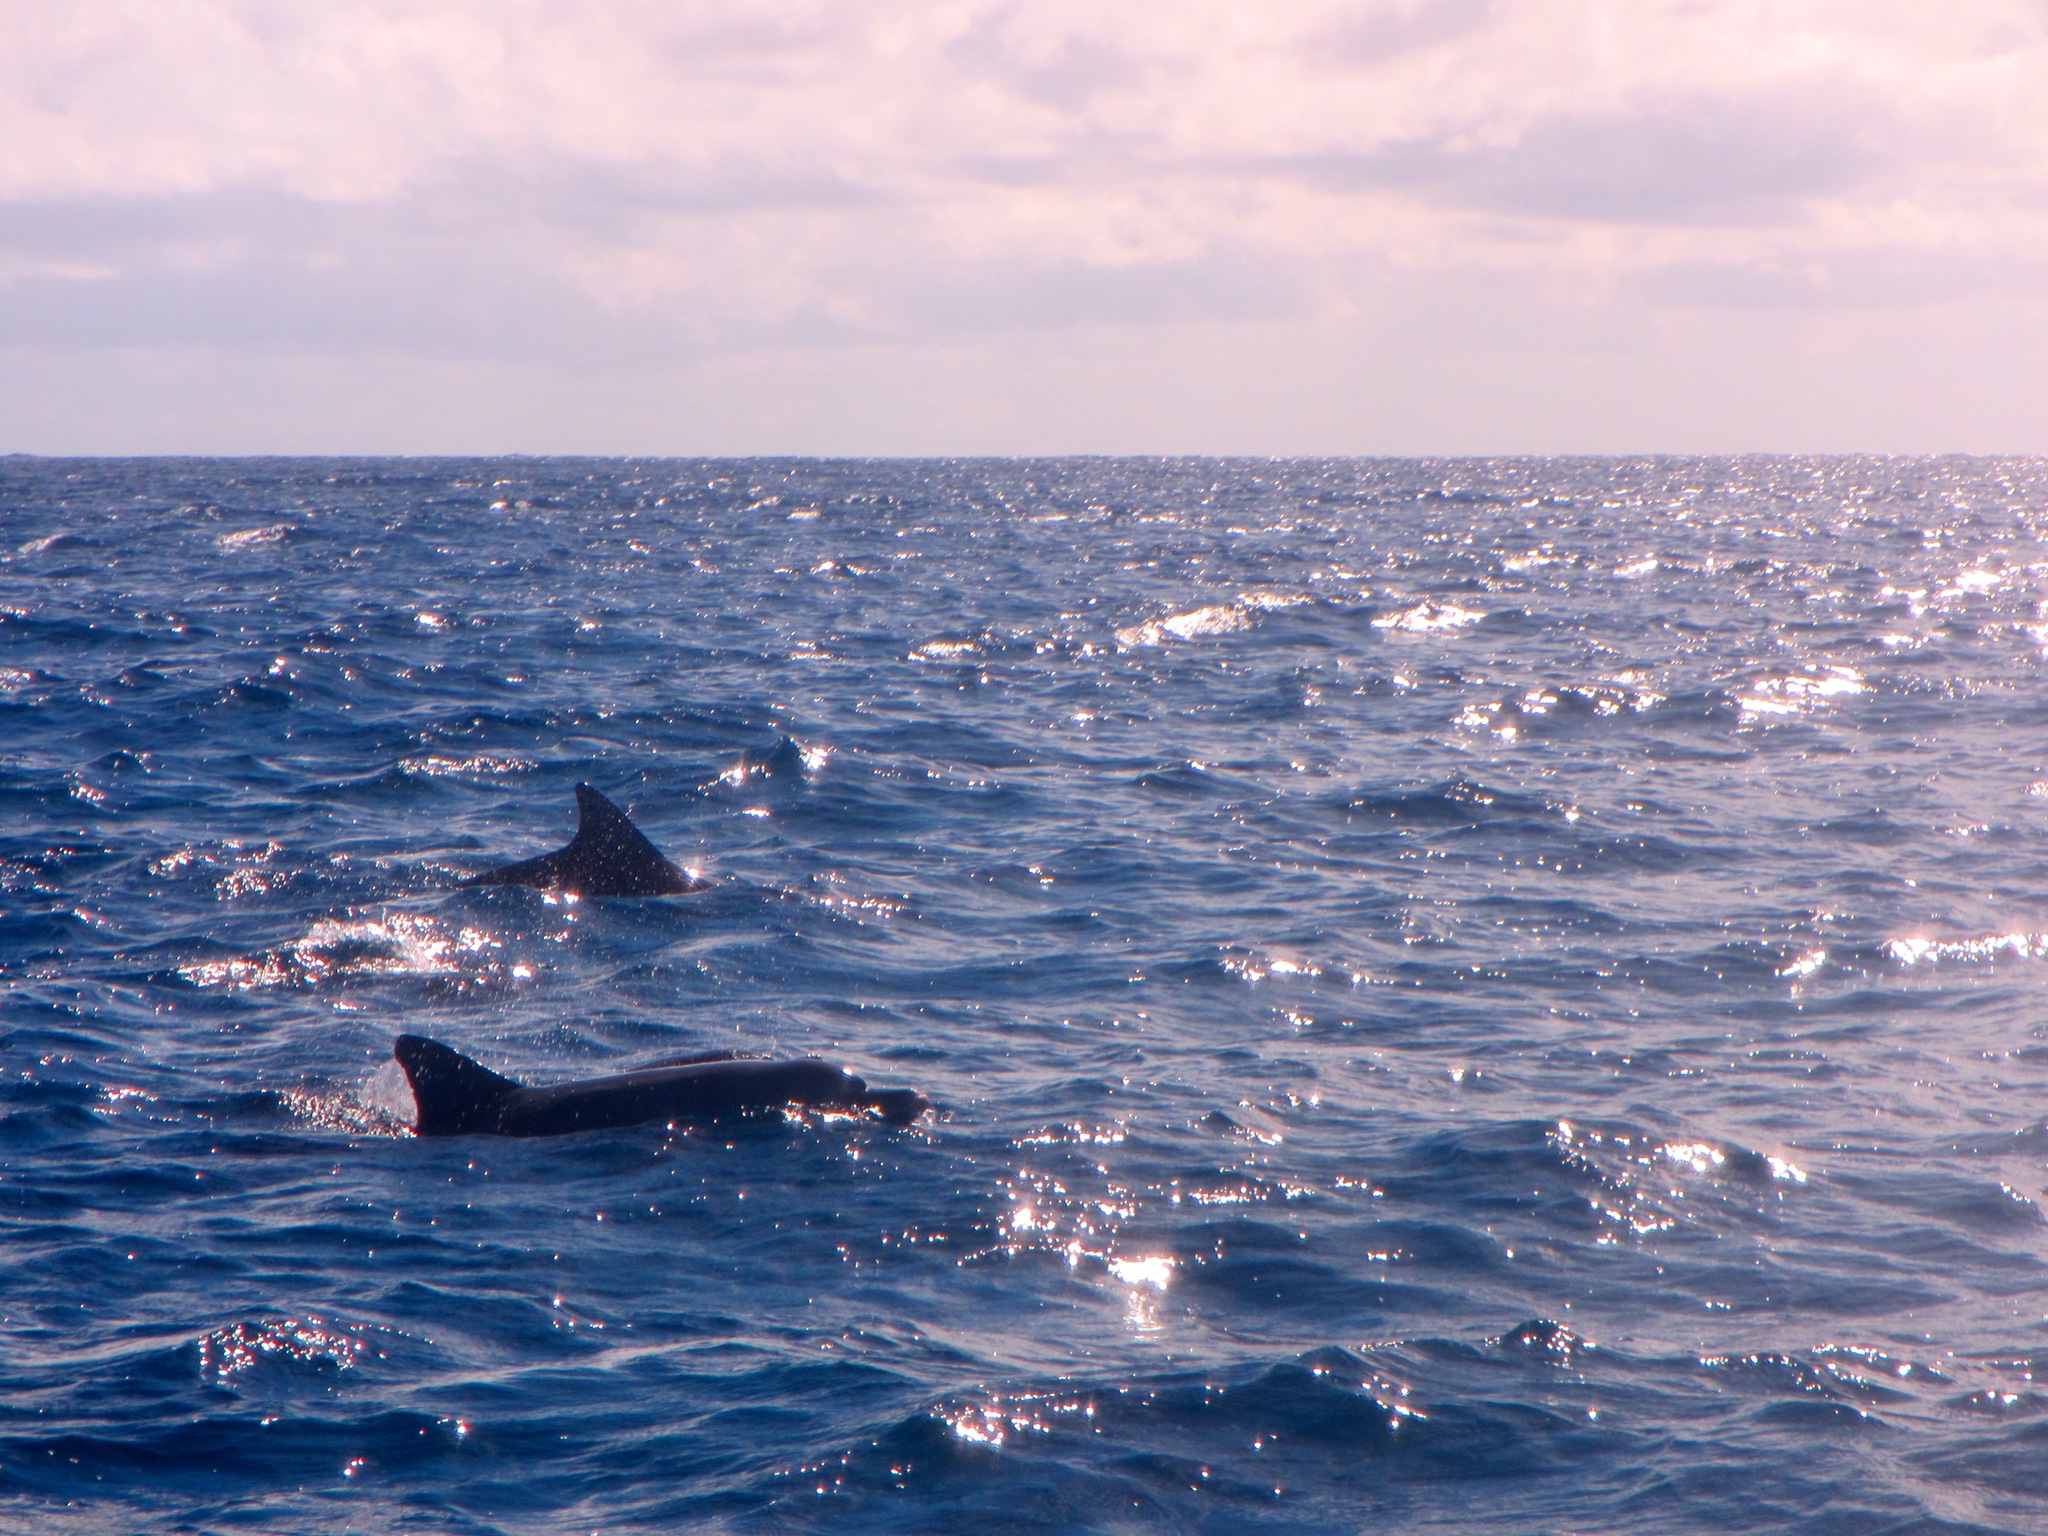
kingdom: Animalia
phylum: Chordata
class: Mammalia
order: Cetacea
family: Delphinidae
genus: Tursiops
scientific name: Tursiops truncatus
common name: Bottlenose dolphin
